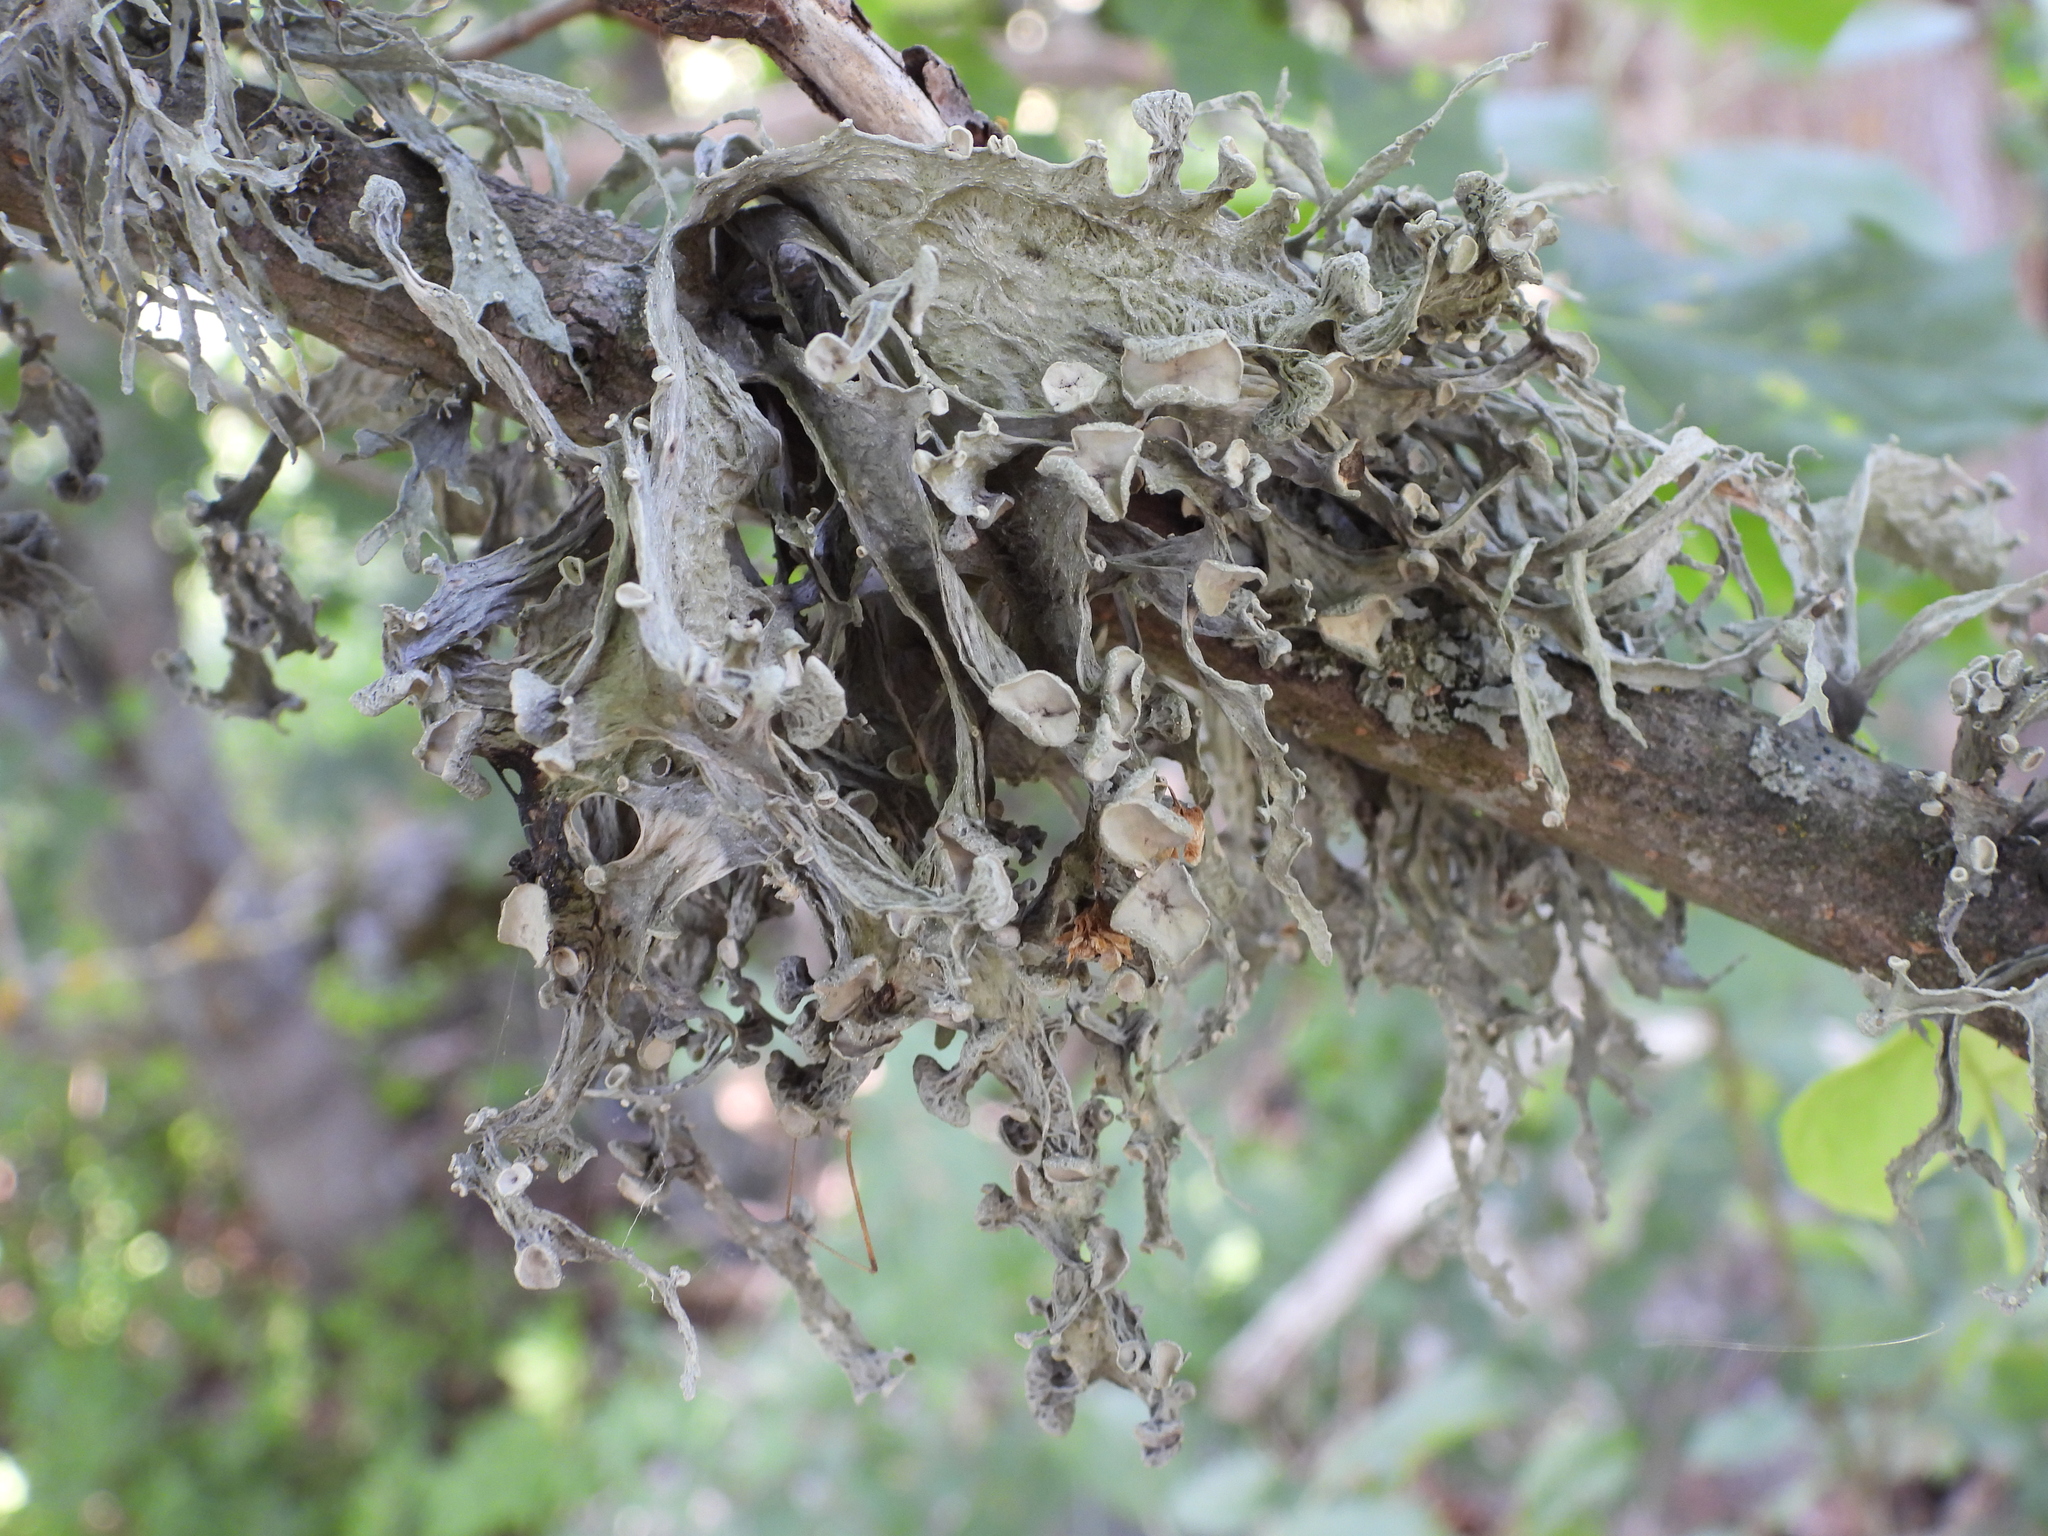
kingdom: Fungi
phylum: Ascomycota
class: Lecanoromycetes
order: Lecanorales
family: Ramalinaceae
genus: Ramalina
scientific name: Ramalina fraxinea
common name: Cartilage lichen
